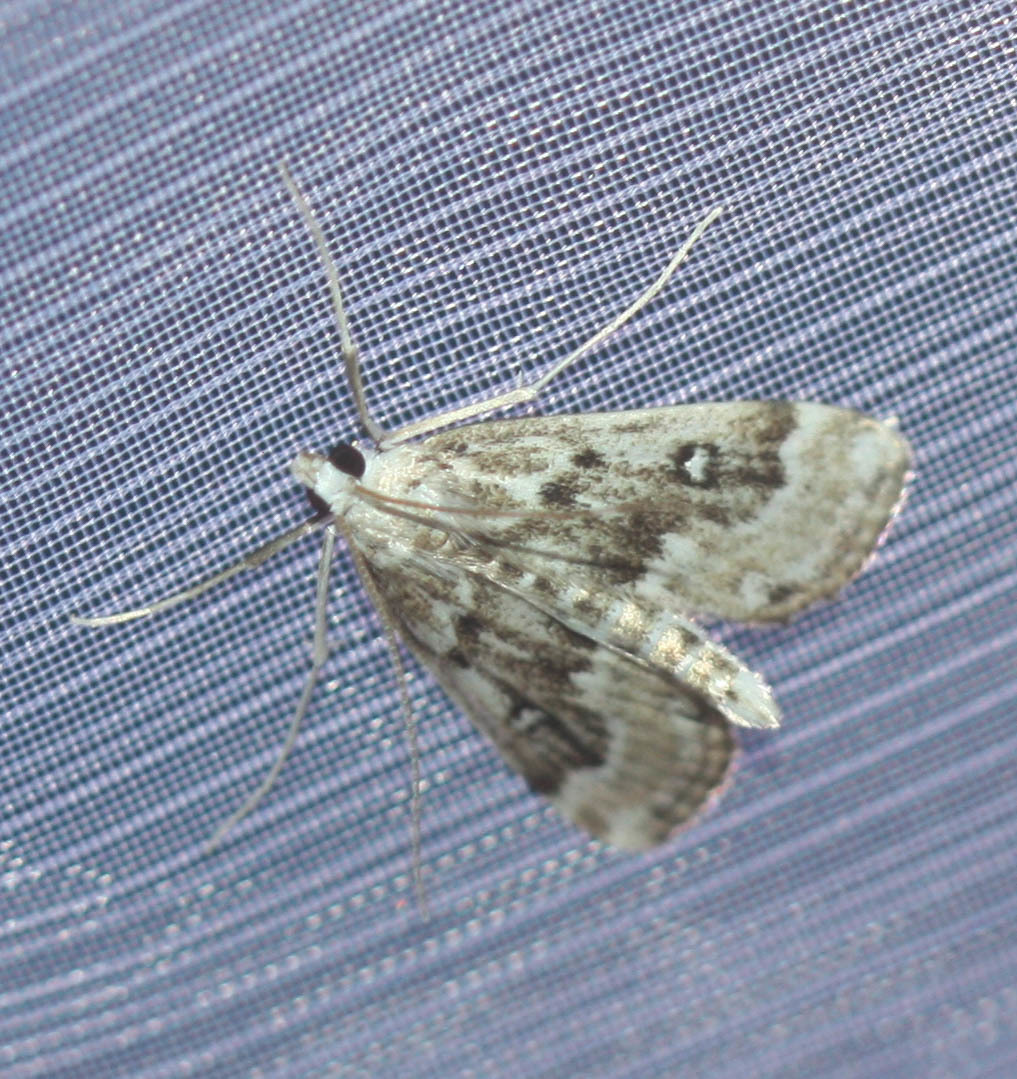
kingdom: Animalia
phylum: Arthropoda
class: Insecta
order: Lepidoptera
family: Crambidae
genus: Parapoynx
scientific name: Parapoynx stratiotata
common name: Ringed china-mark
